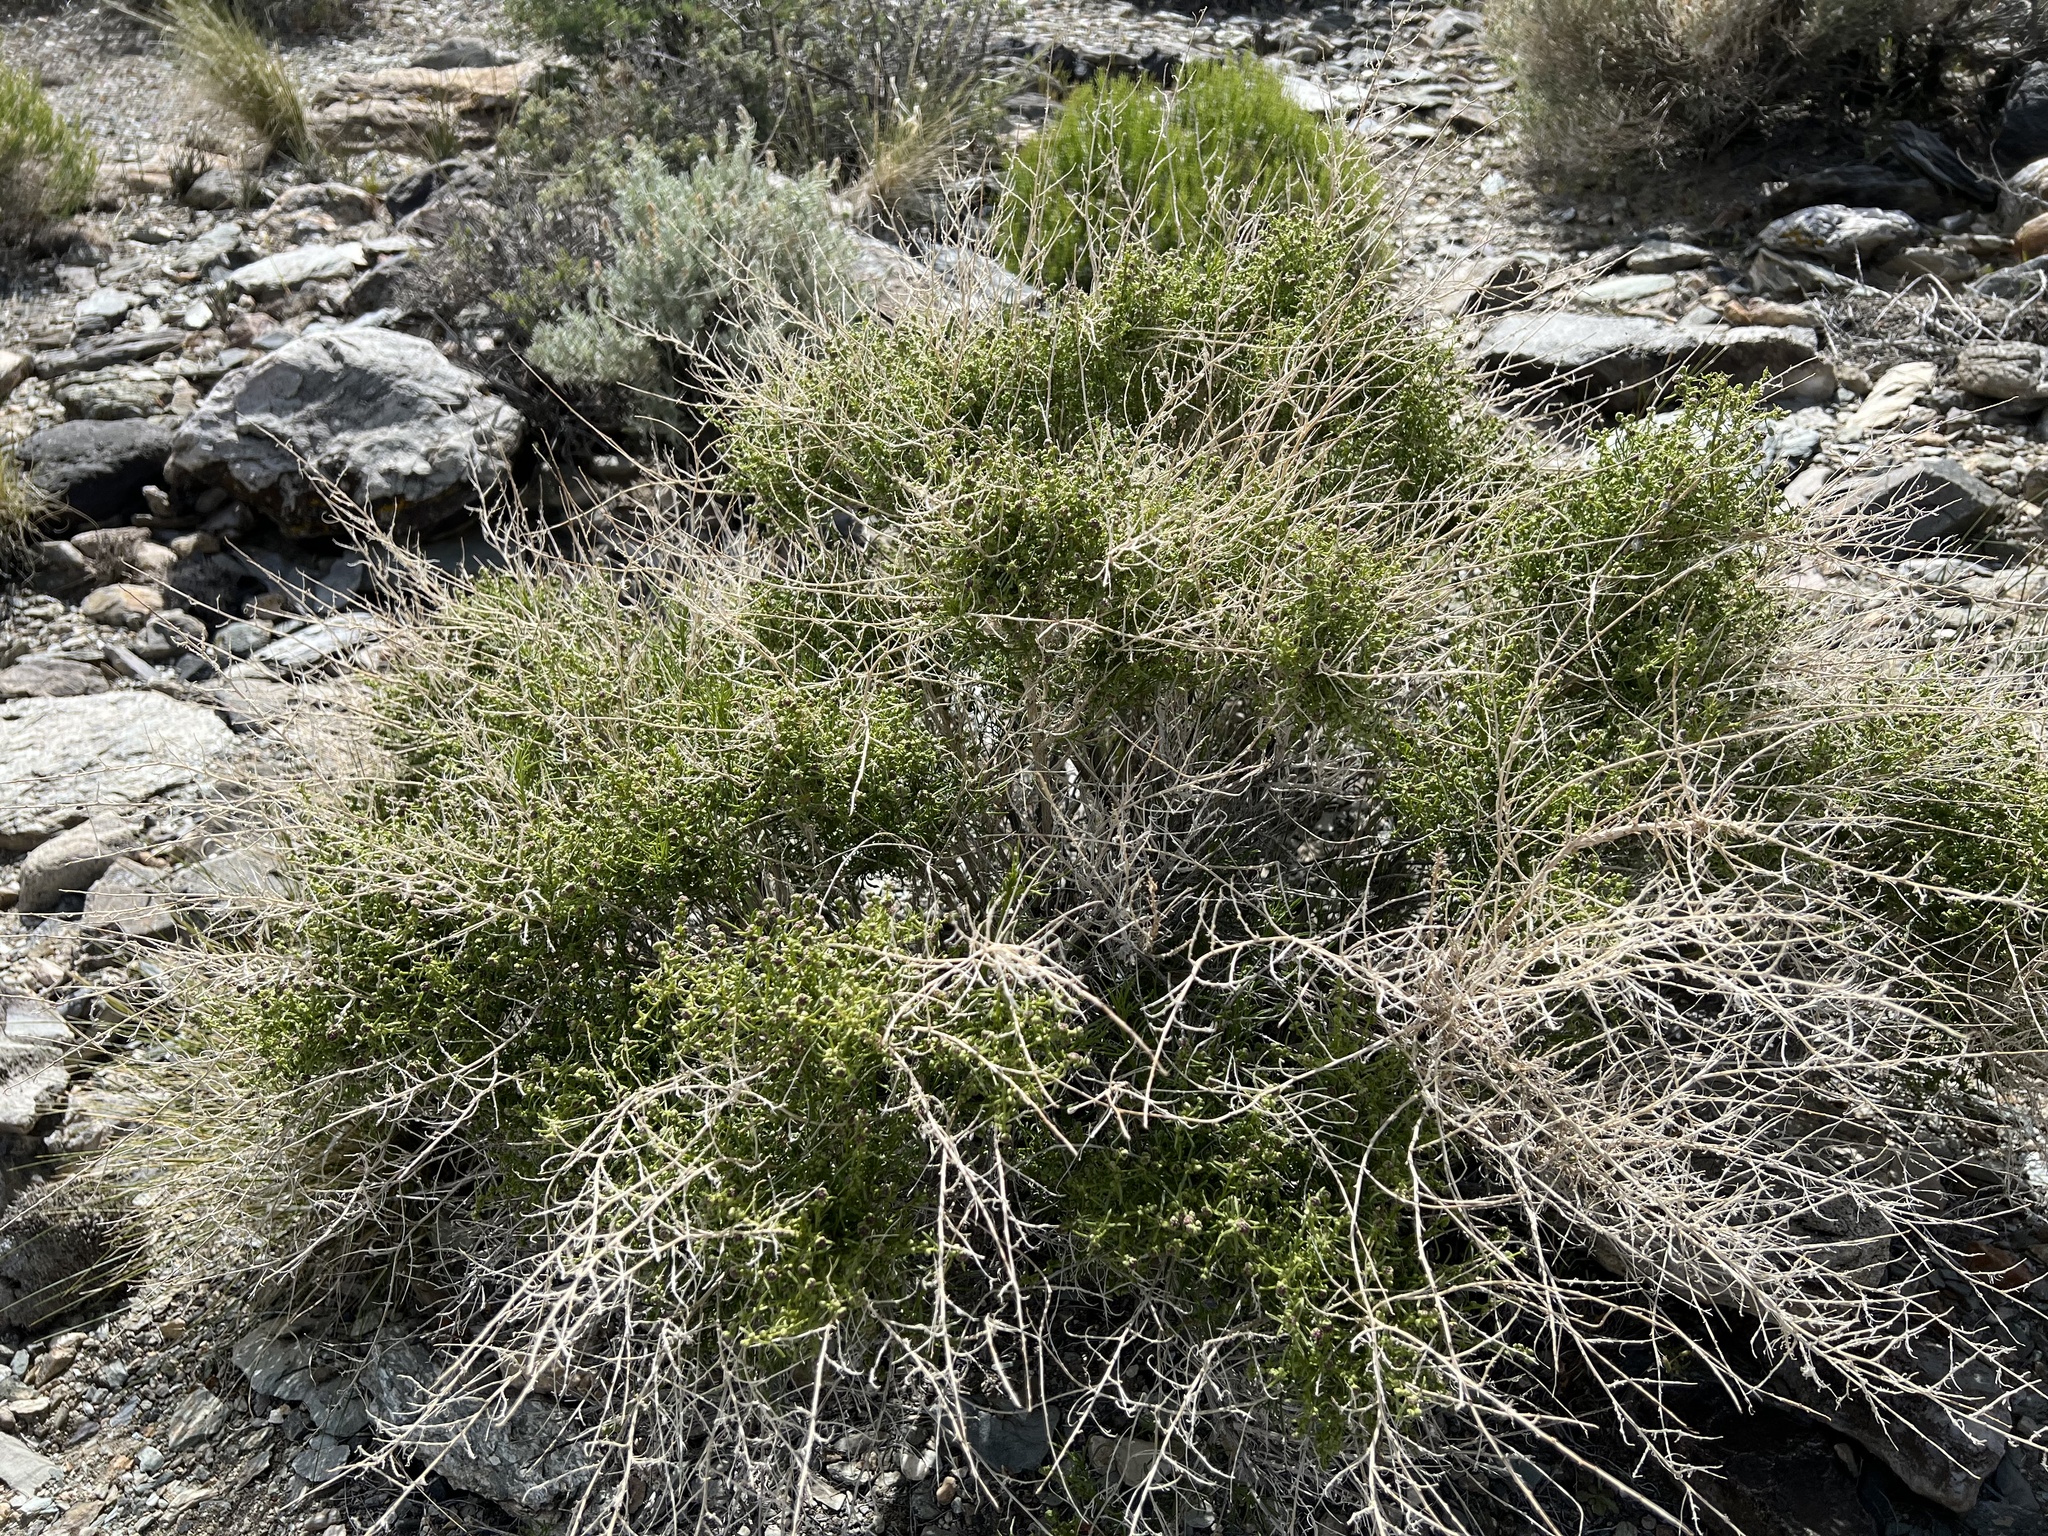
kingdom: Plantae
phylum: Tracheophyta
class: Magnoliopsida
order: Asterales
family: Asteraceae
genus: Ambrosia
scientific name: Ambrosia salsola
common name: Burrobrush
